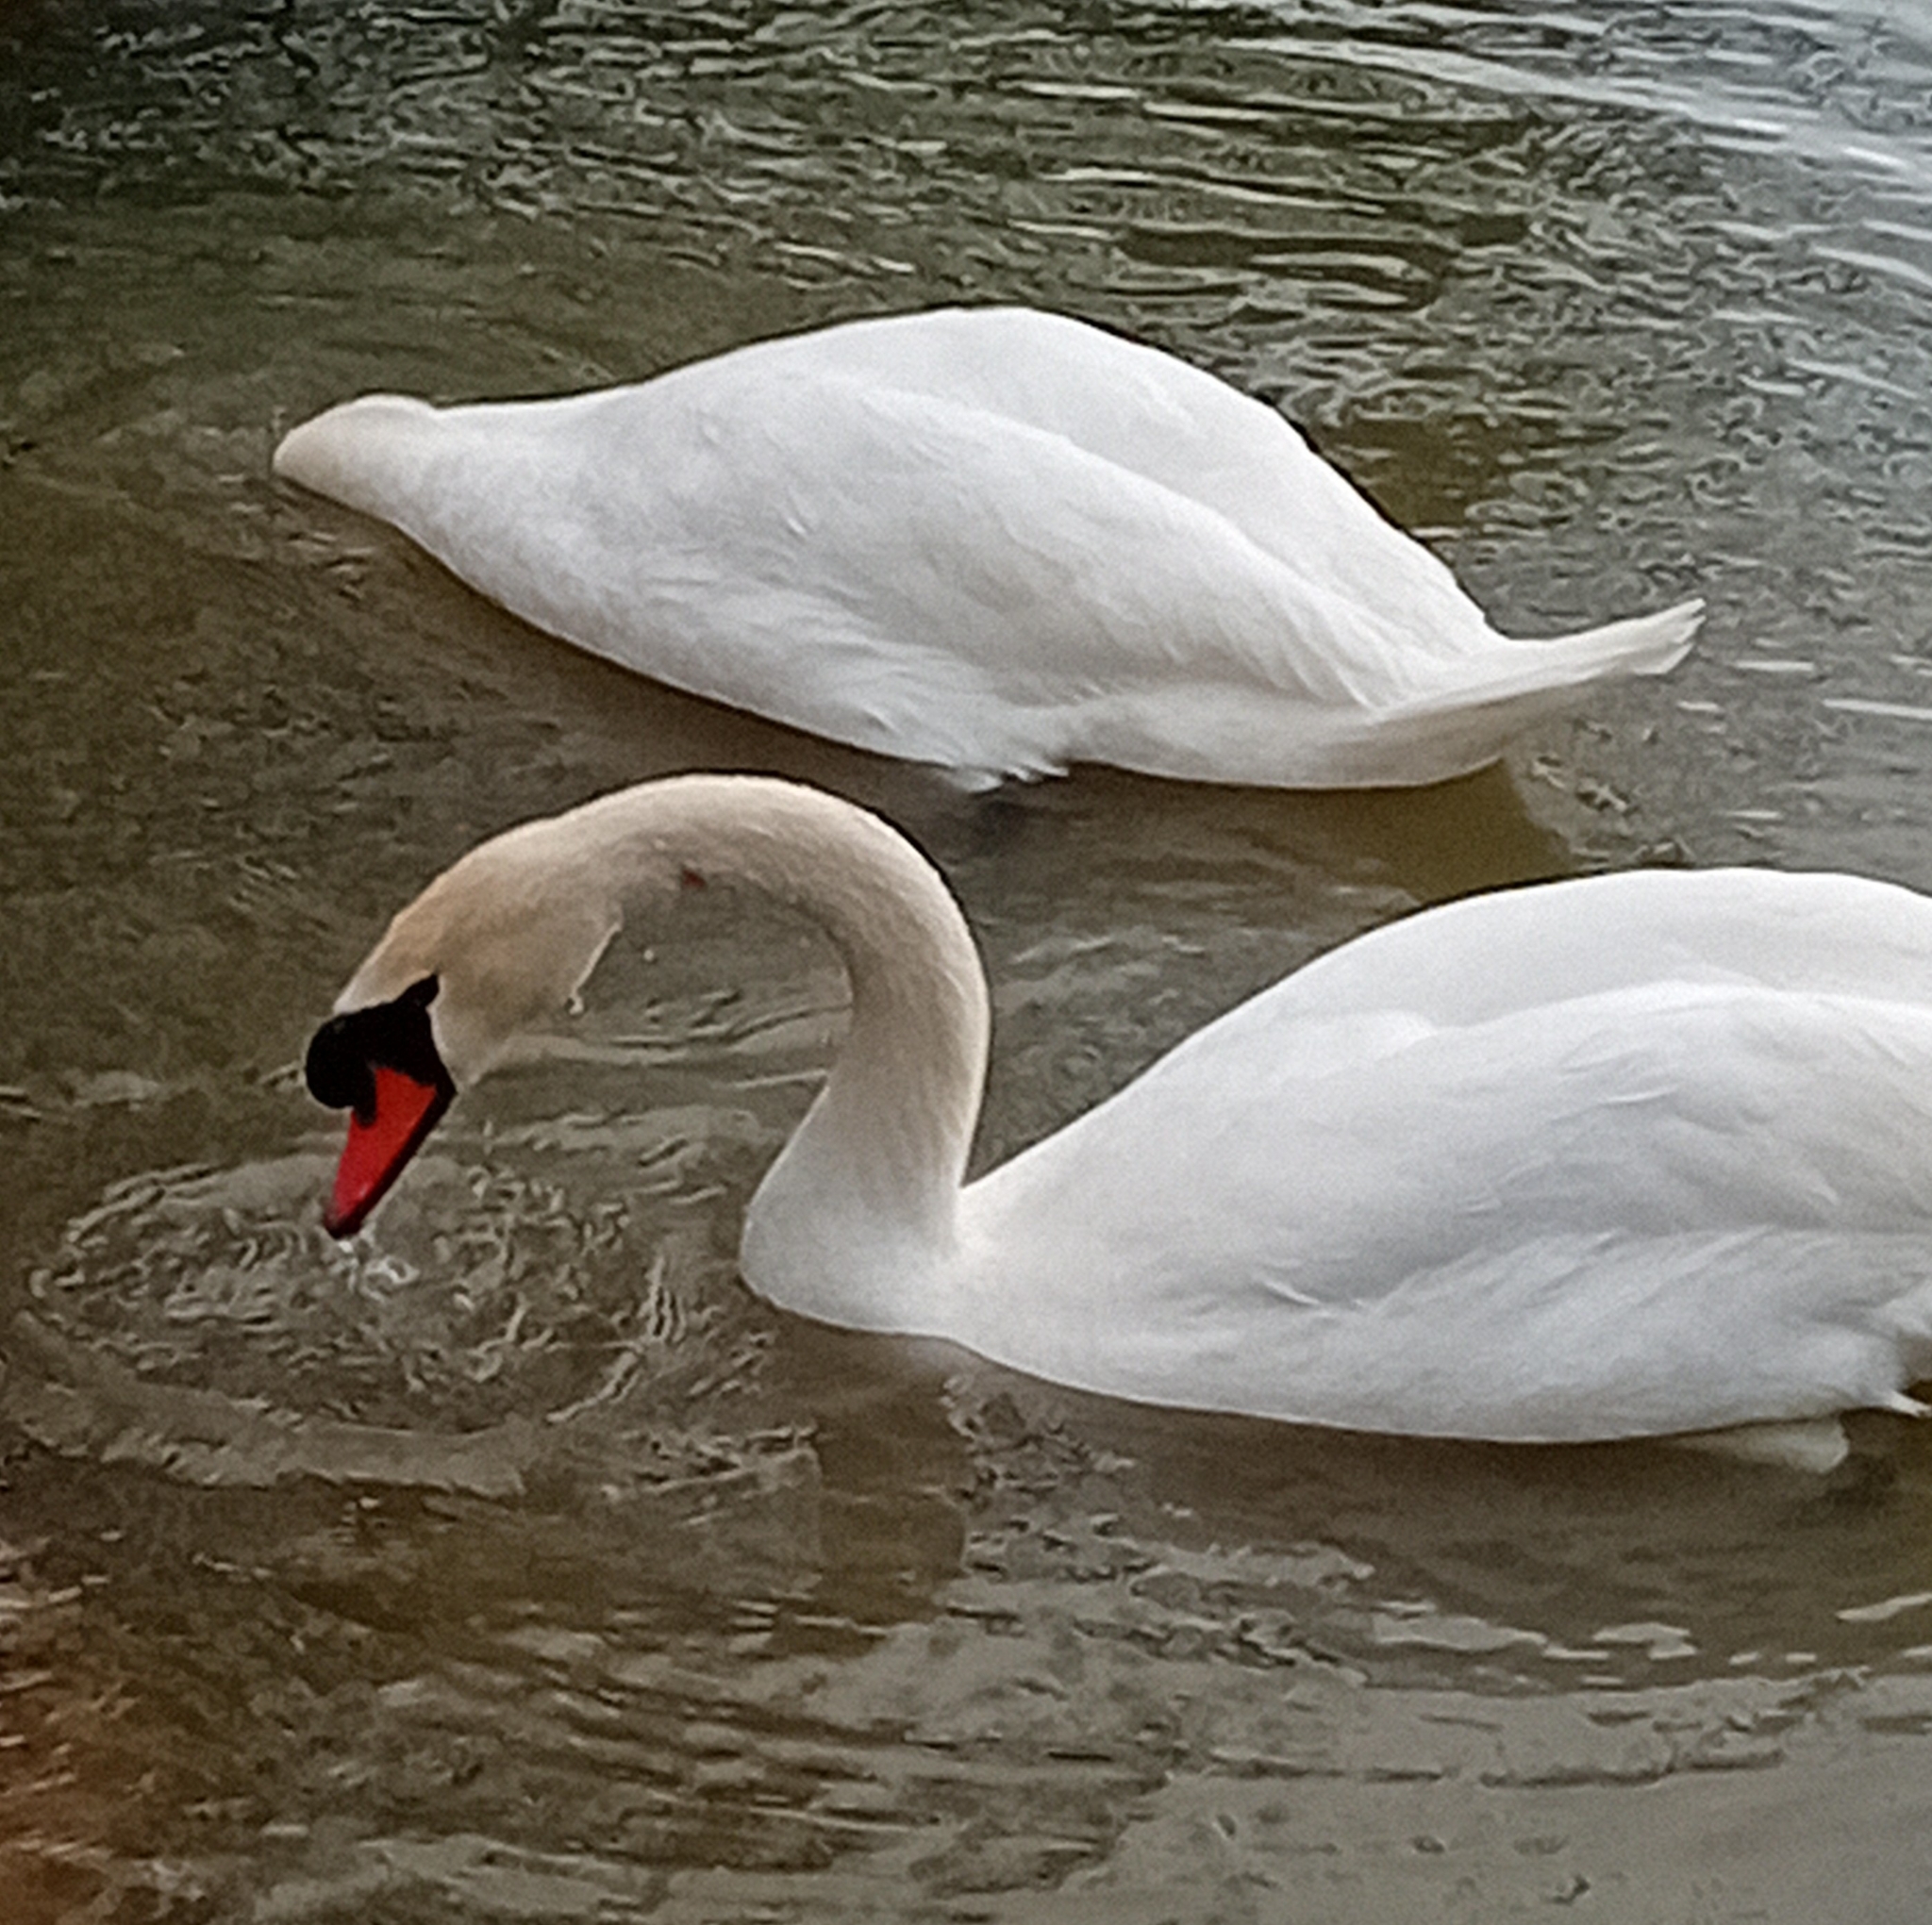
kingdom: Animalia
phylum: Chordata
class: Aves
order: Anseriformes
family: Anatidae
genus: Cygnus
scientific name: Cygnus olor
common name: Mute swan
